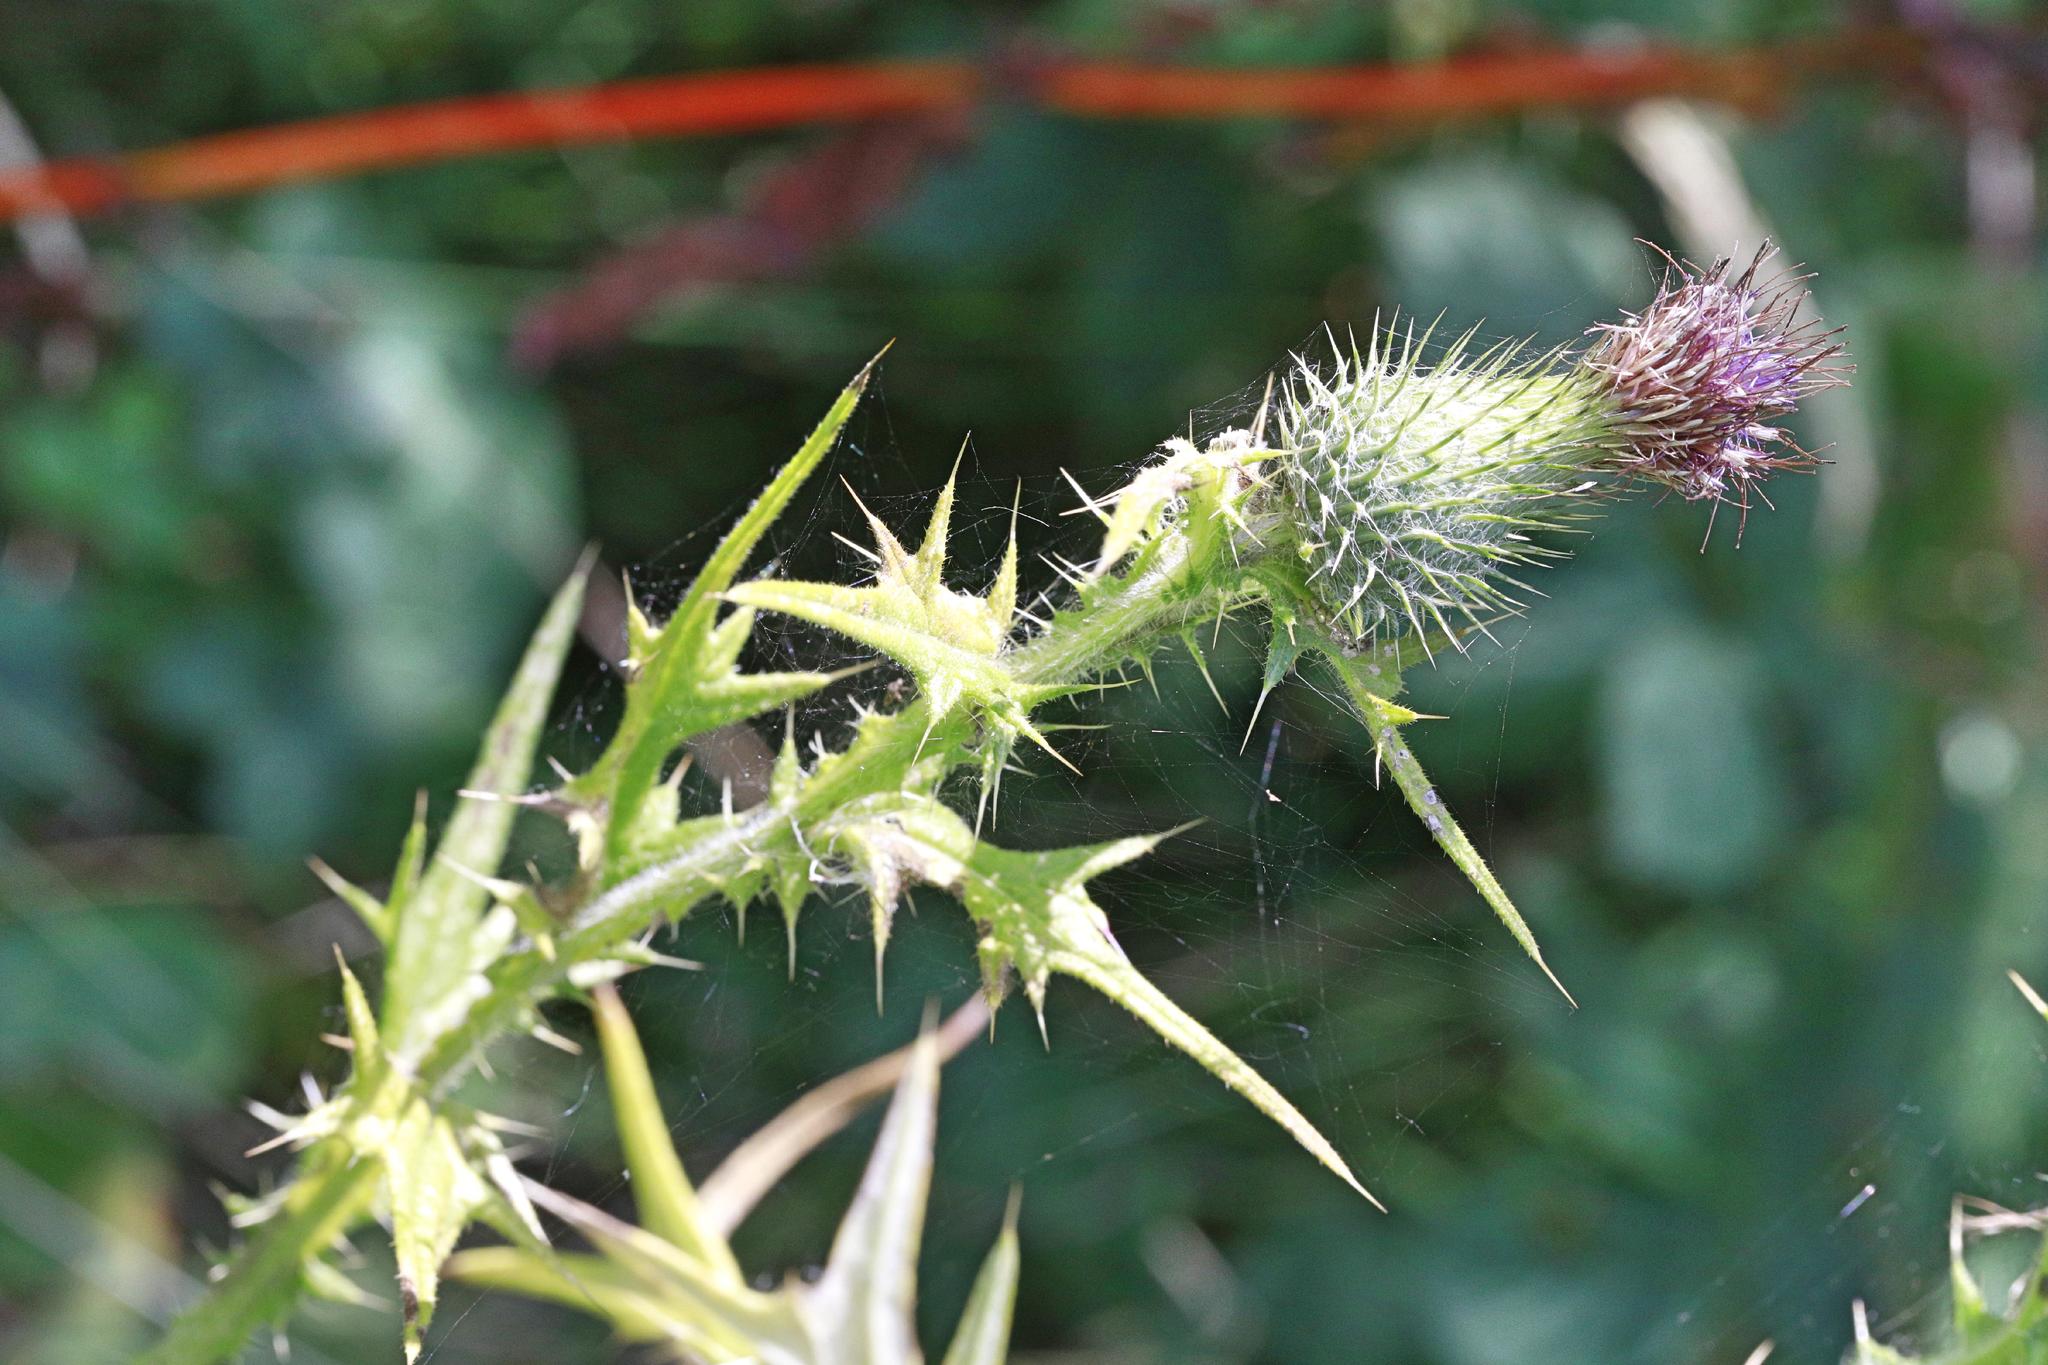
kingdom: Plantae
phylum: Tracheophyta
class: Magnoliopsida
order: Asterales
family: Asteraceae
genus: Cirsium
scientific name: Cirsium vulgare
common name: Bull thistle
